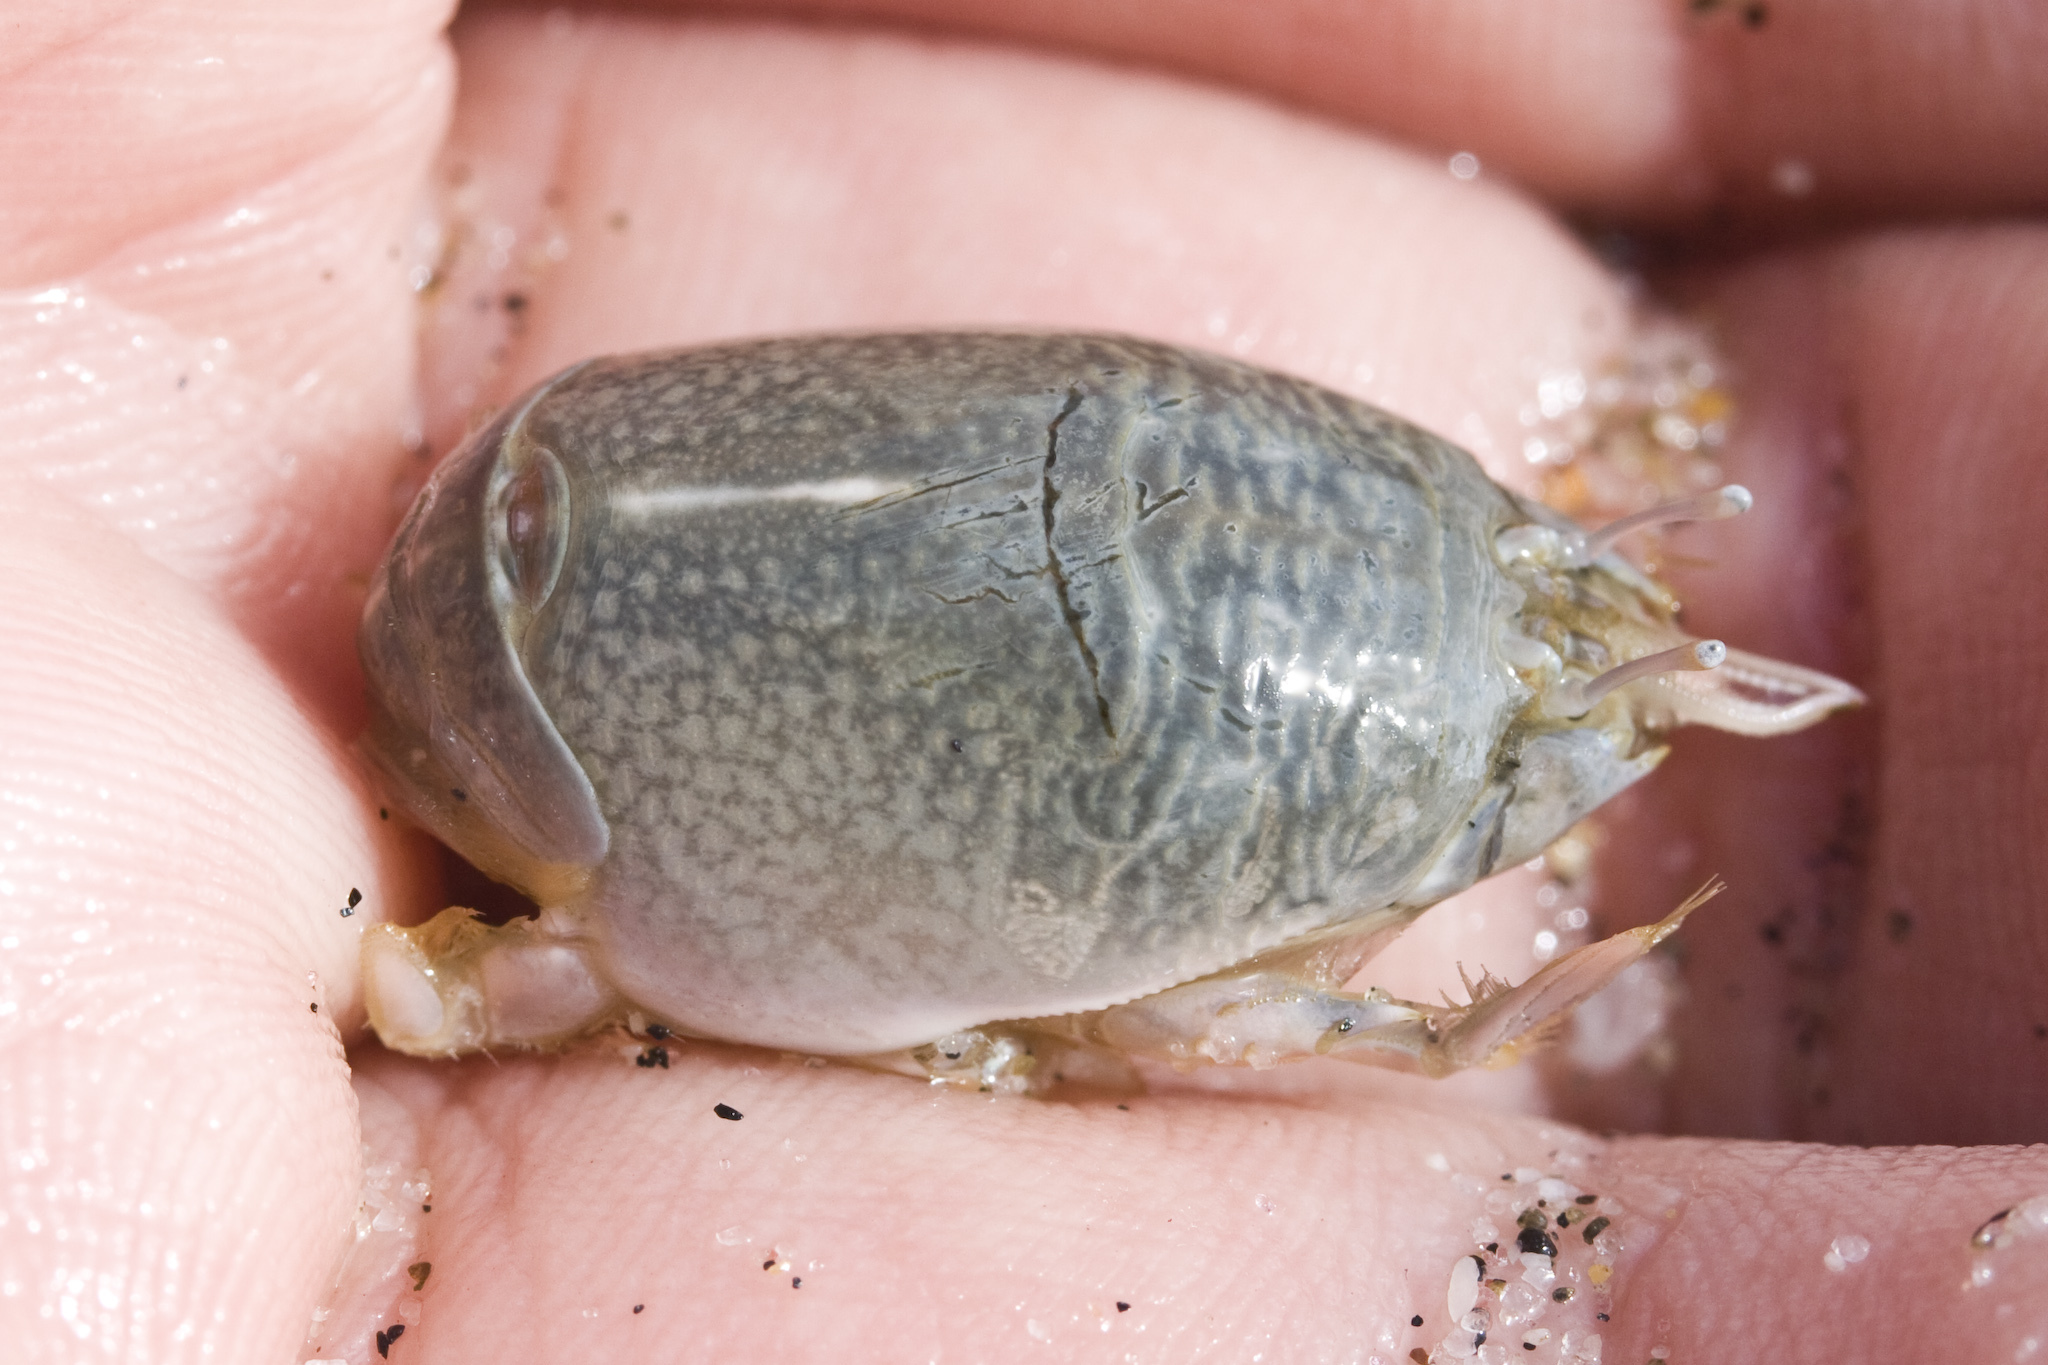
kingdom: Animalia
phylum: Arthropoda
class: Malacostraca
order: Decapoda
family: Hippidae
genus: Emerita
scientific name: Emerita analoga
